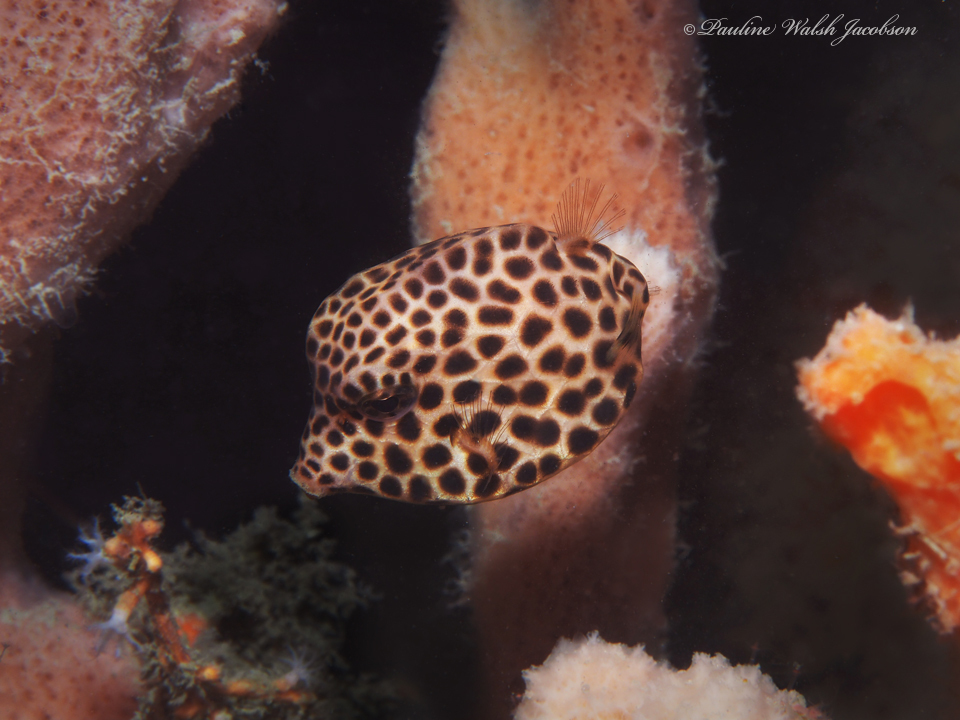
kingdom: Animalia
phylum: Chordata
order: Tetraodontiformes
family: Ostraciidae
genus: Lactophrys
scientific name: Lactophrys bicaudalis
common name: Spotted trunkfish
